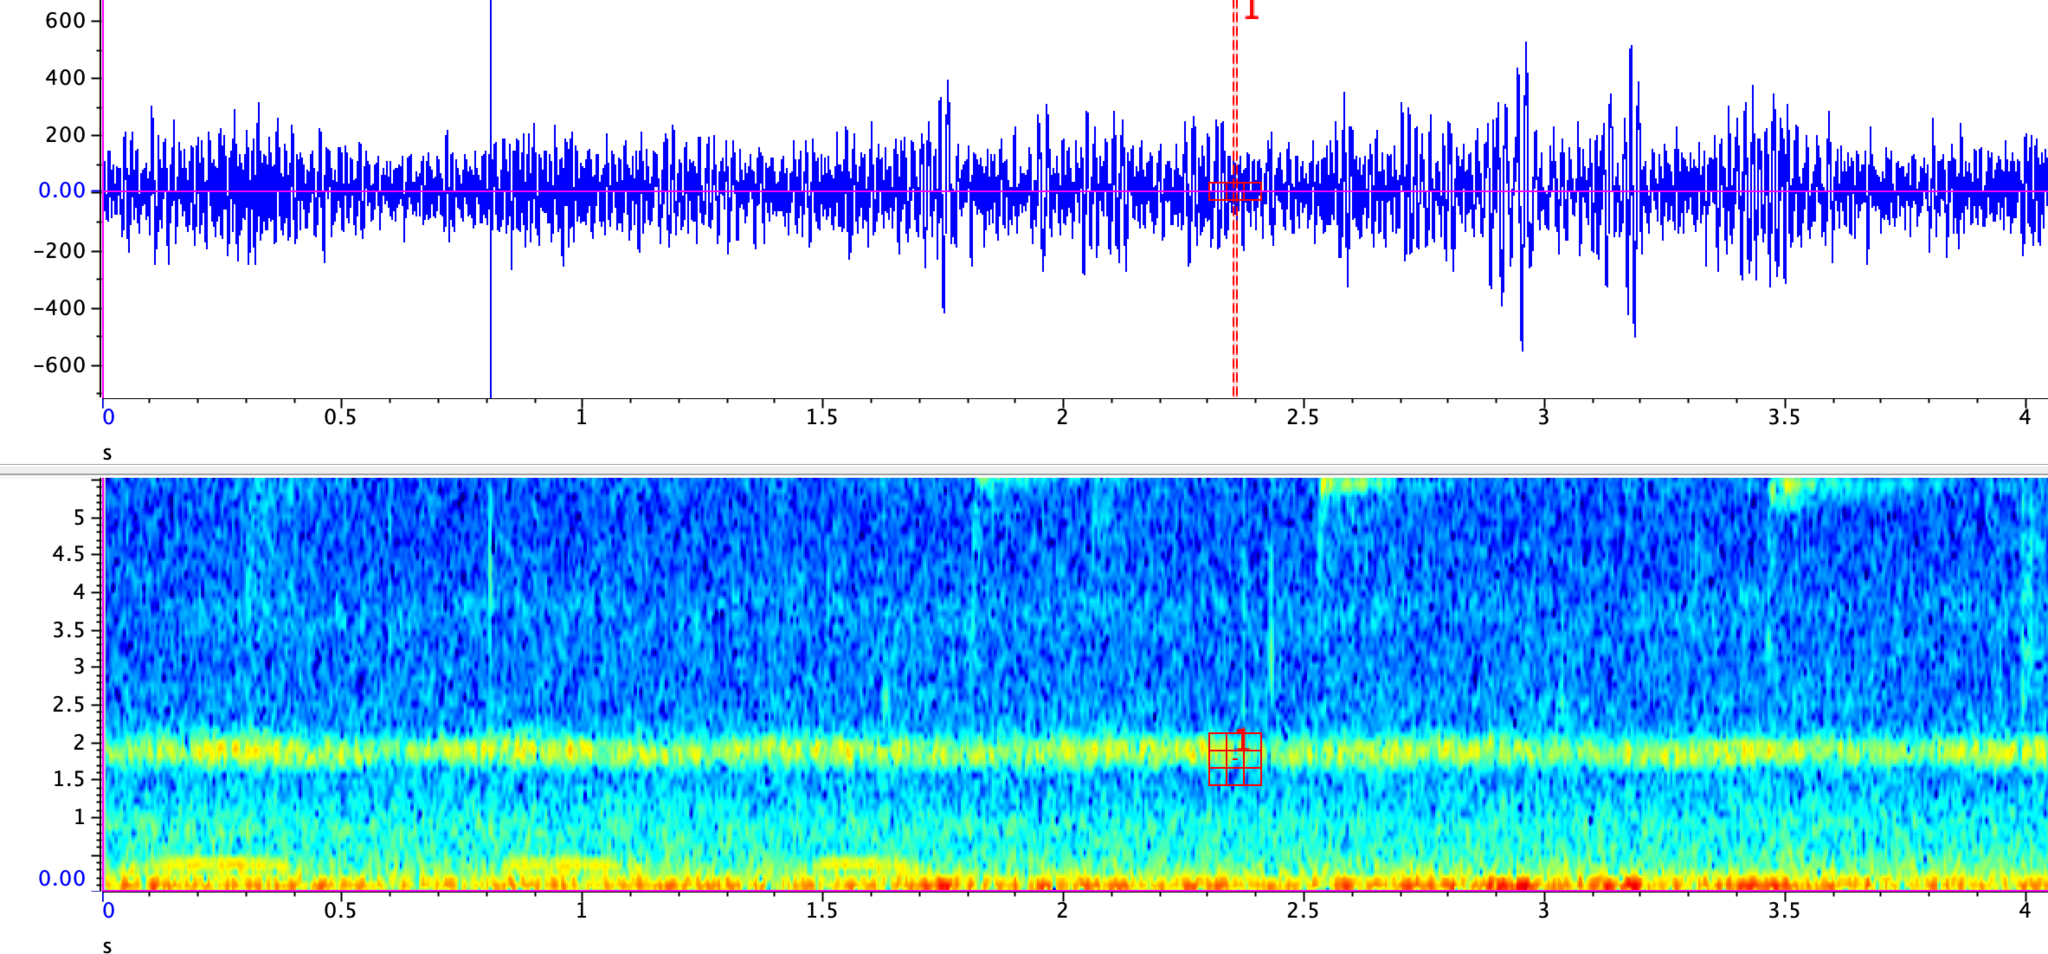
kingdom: Animalia
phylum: Arthropoda
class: Insecta
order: Orthoptera
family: Gryllidae
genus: Oecanthus
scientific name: Oecanthus rileyi
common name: Riley's tree cricket
